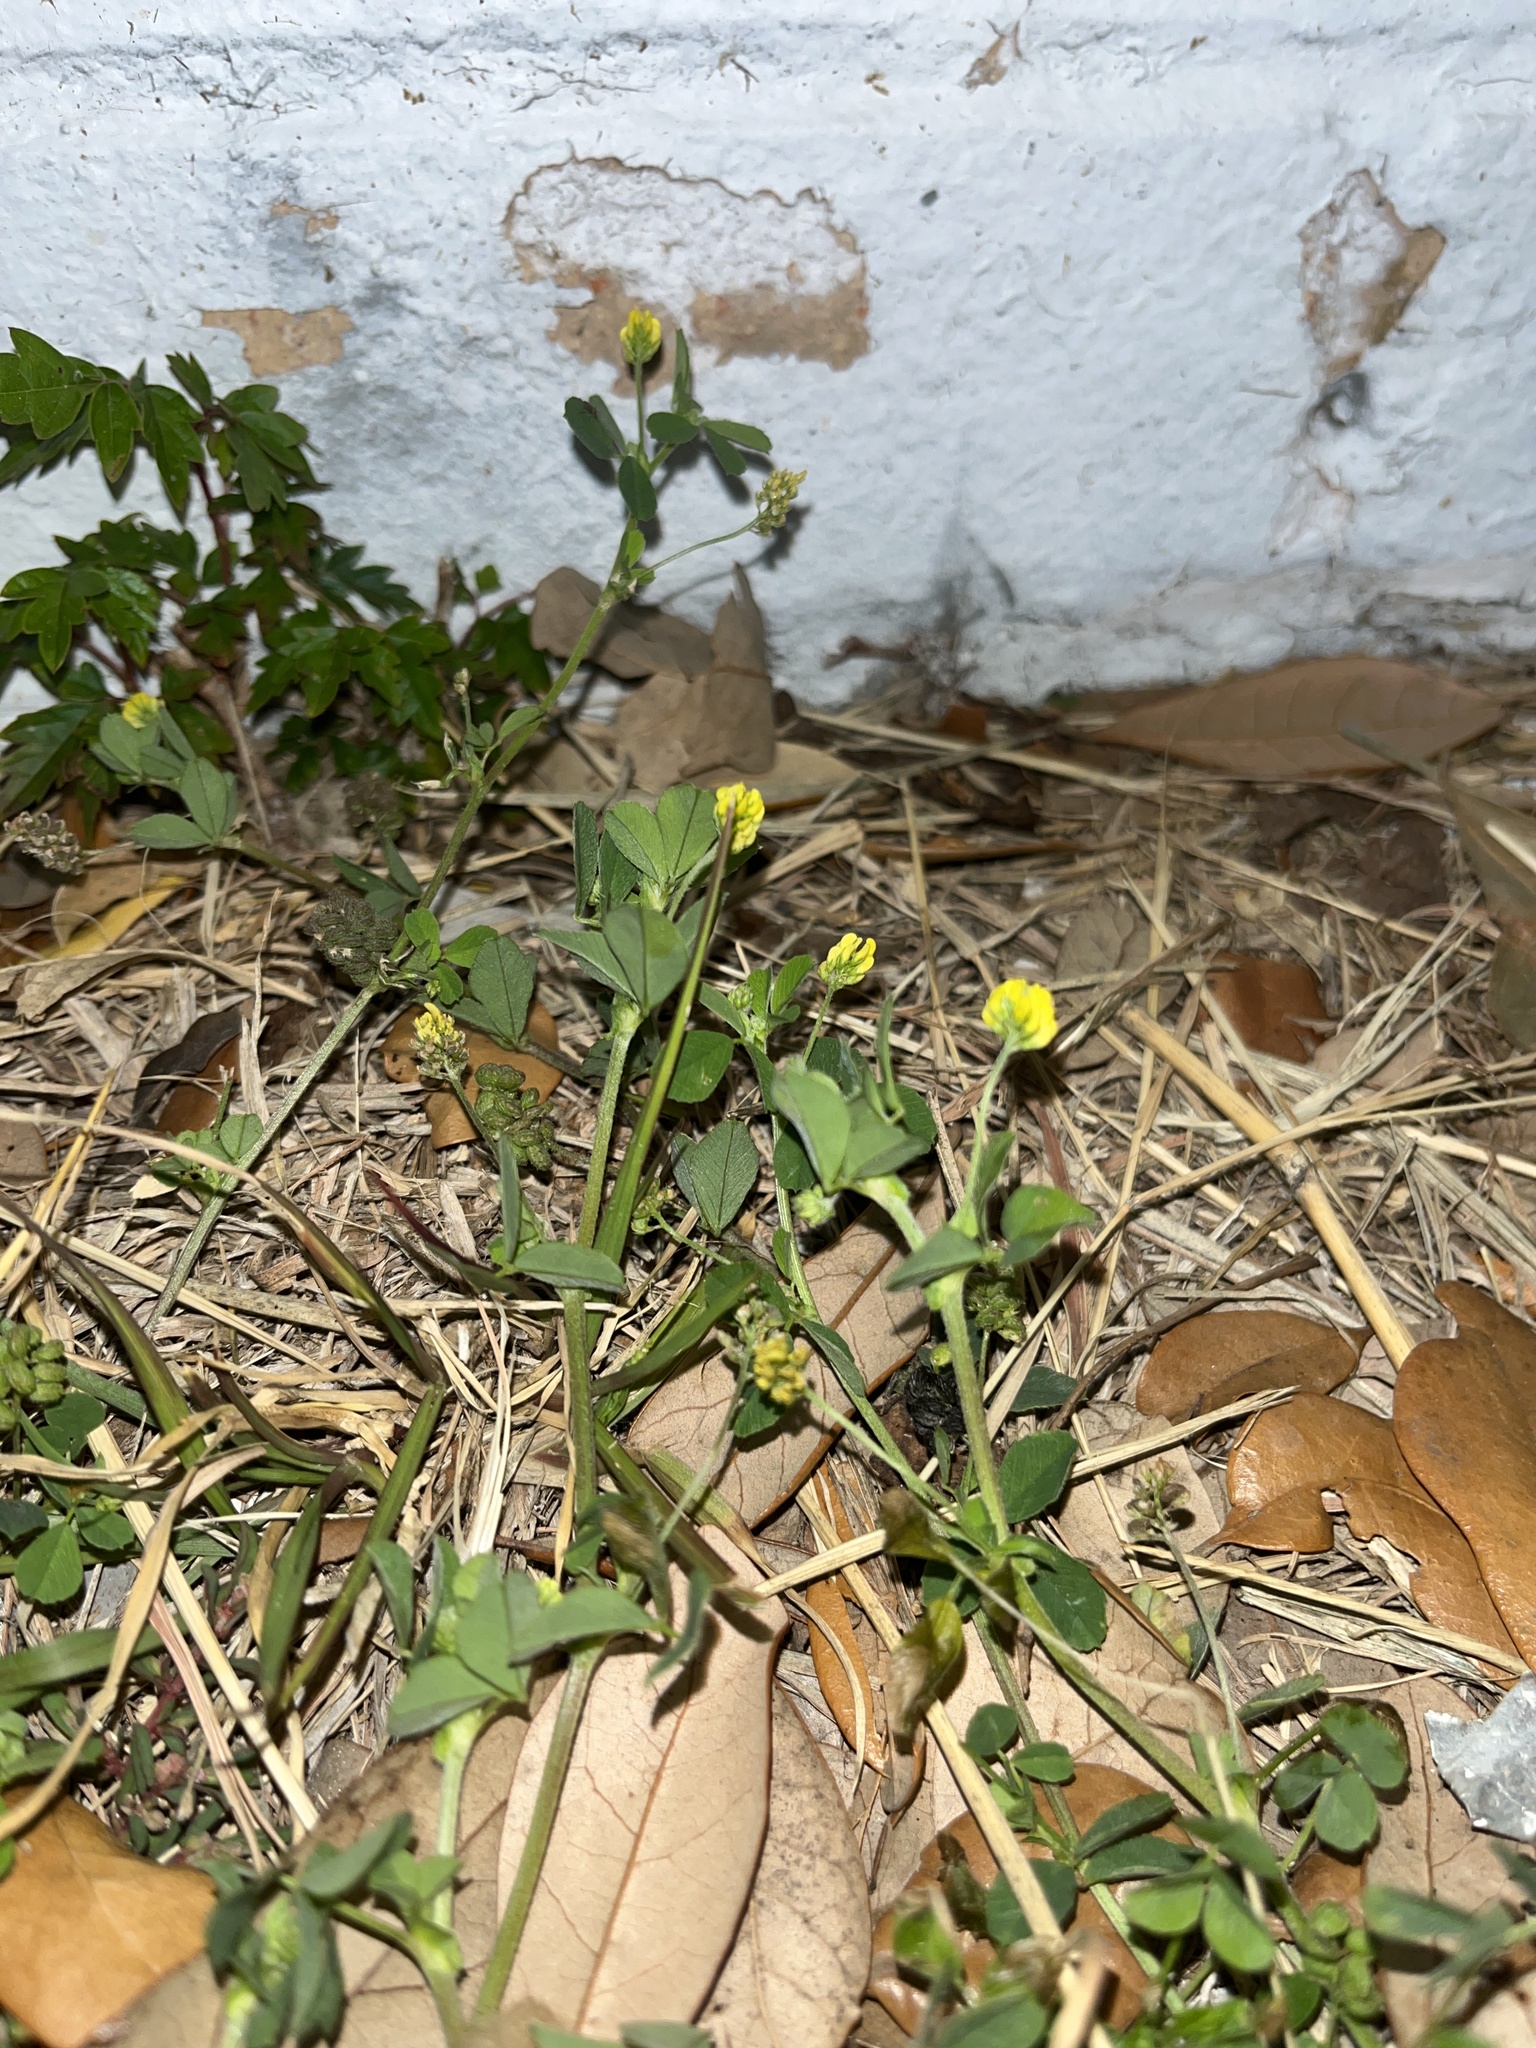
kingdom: Plantae
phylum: Tracheophyta
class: Magnoliopsida
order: Fabales
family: Fabaceae
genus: Medicago
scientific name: Medicago lupulina
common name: Black medick
